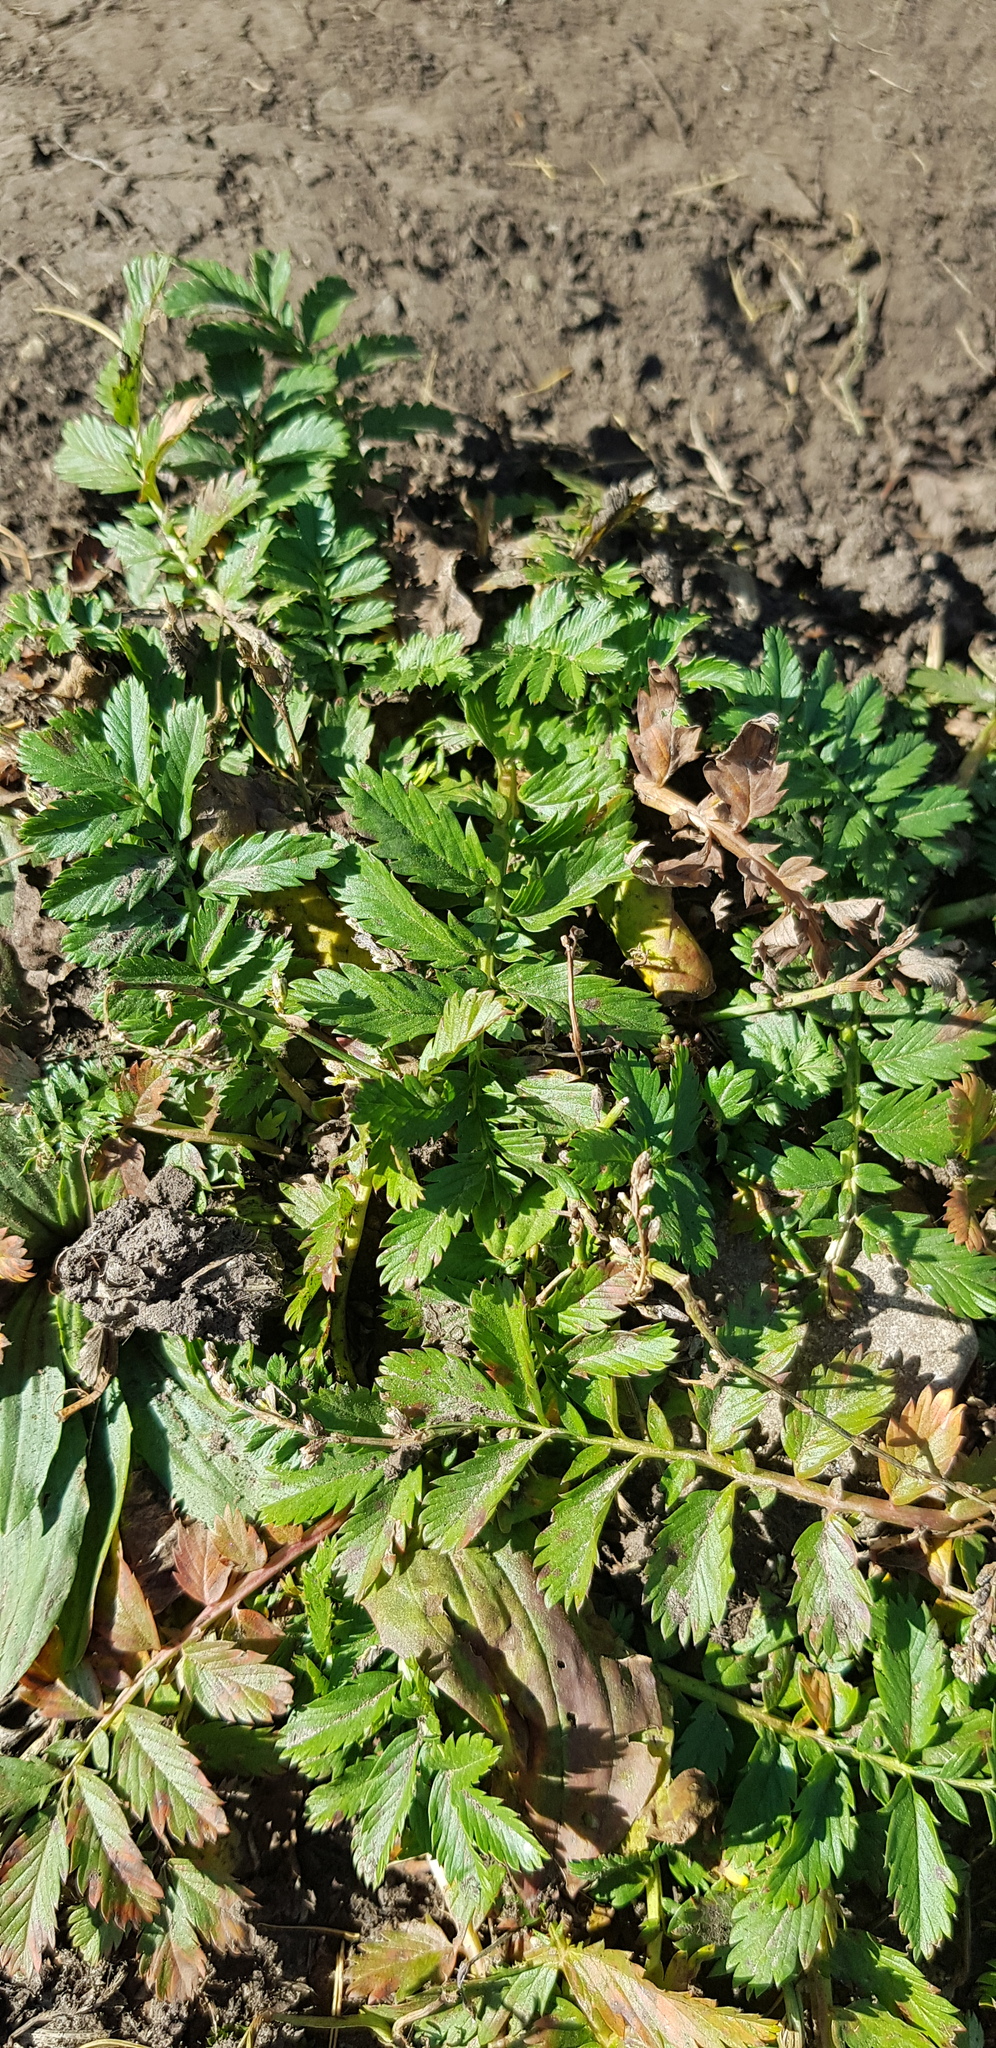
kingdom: Plantae
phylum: Tracheophyta
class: Magnoliopsida
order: Rosales
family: Rosaceae
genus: Argentina
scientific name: Argentina anserina
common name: Common silverweed
